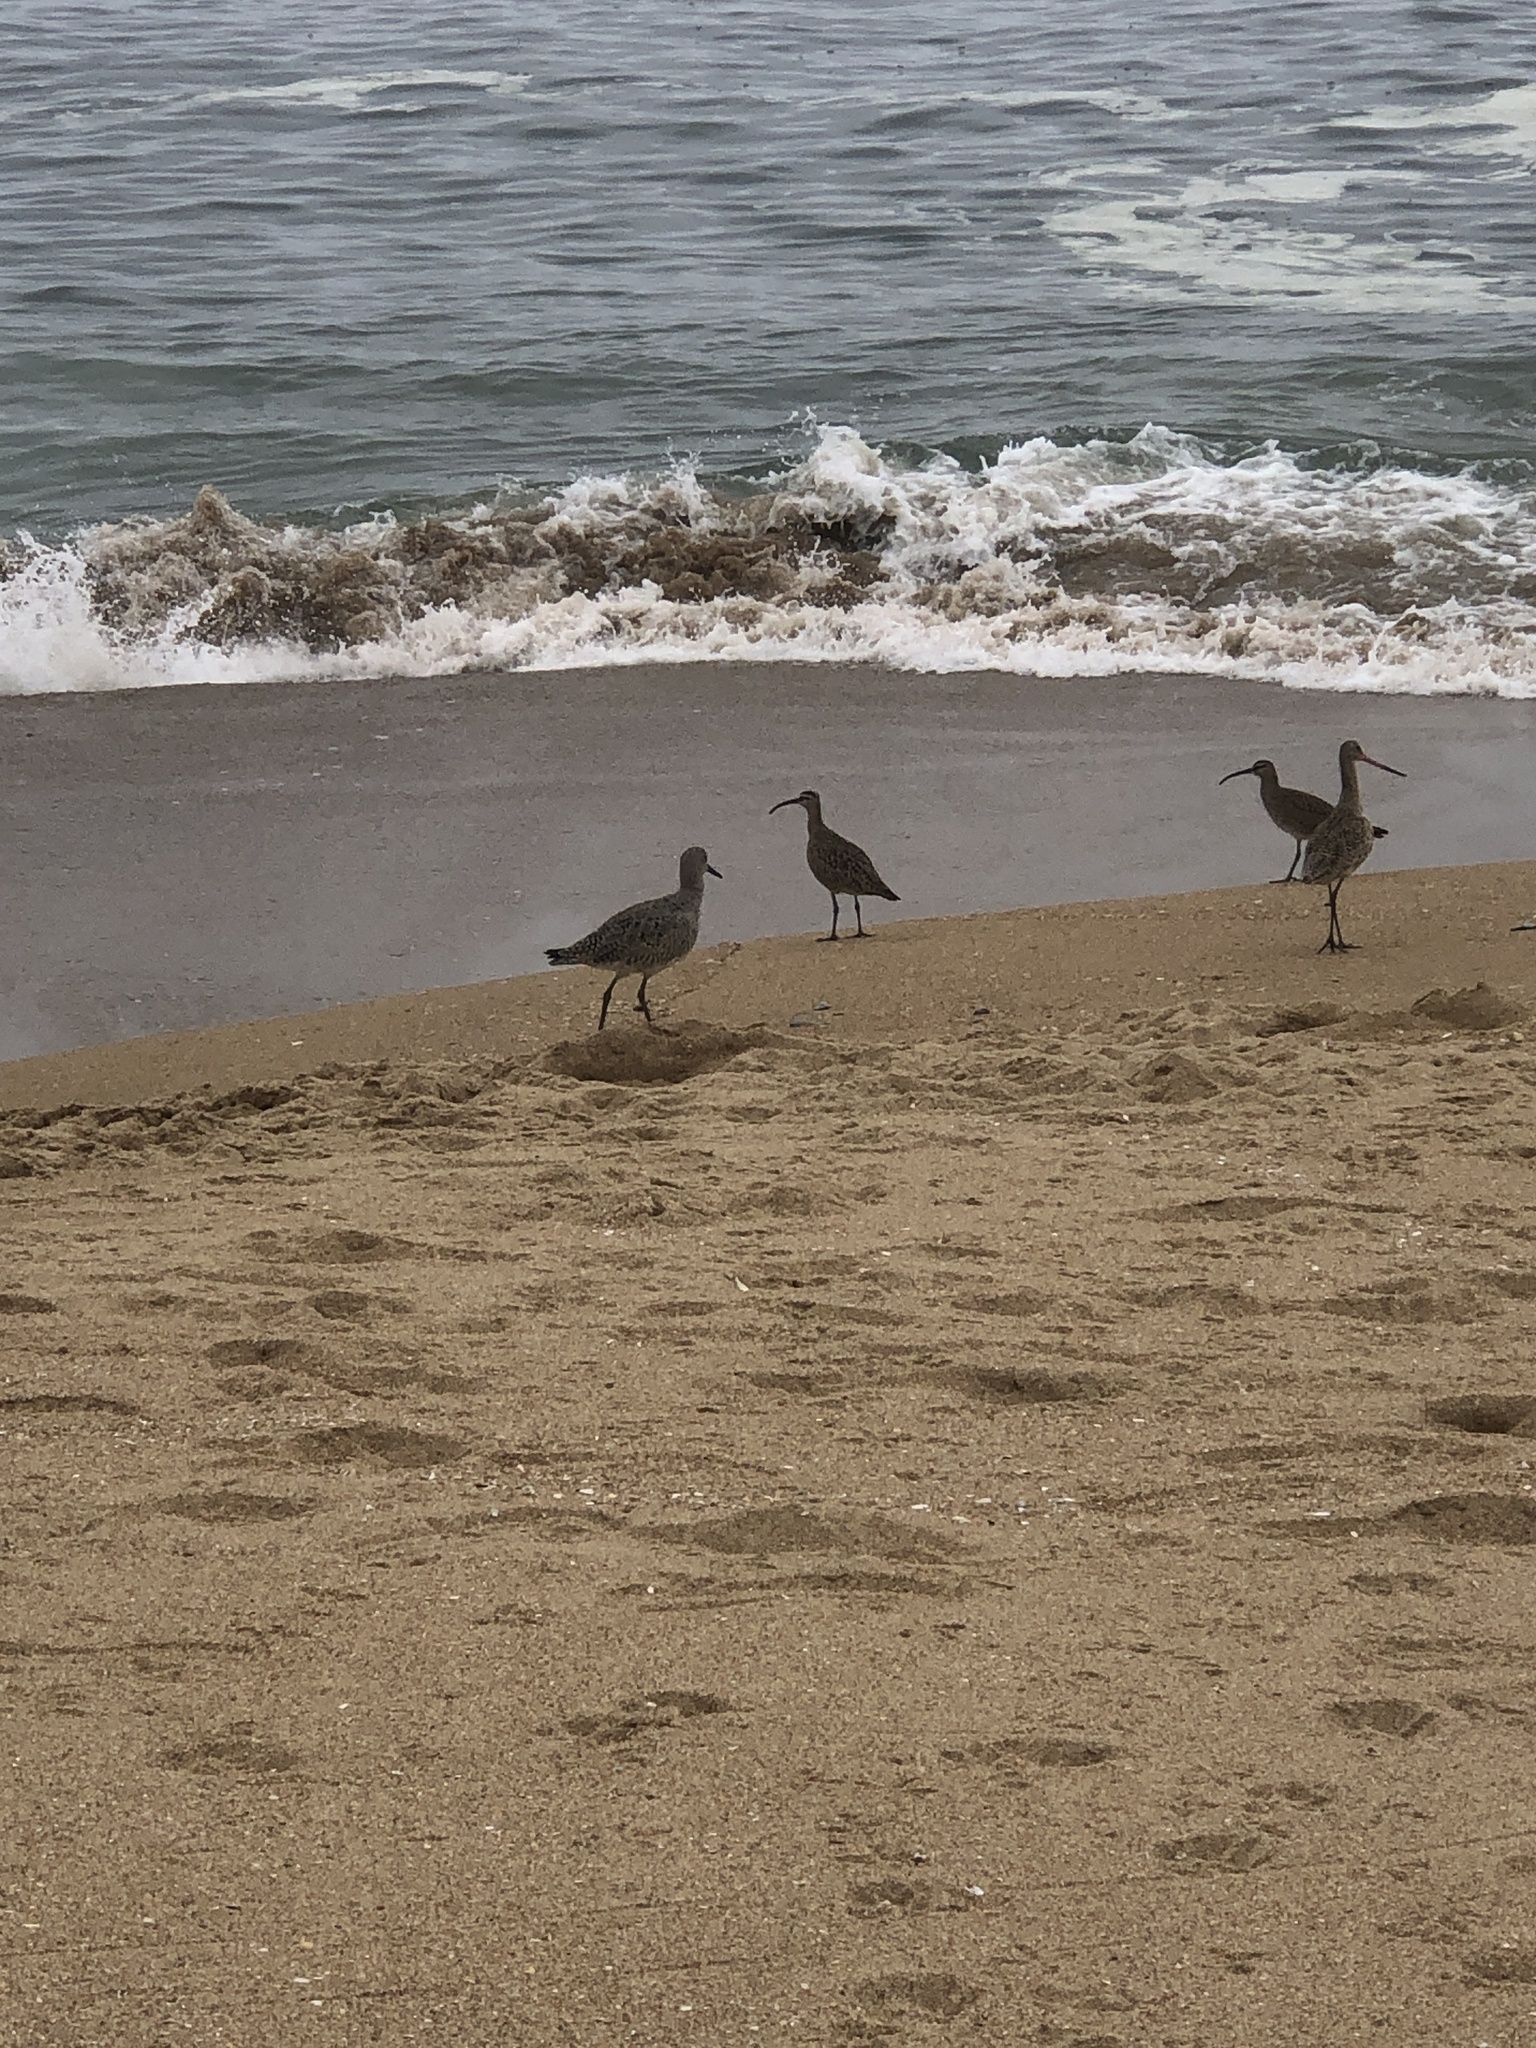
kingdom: Animalia
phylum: Chordata
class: Aves
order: Charadriiformes
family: Scolopacidae
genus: Tringa
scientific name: Tringa semipalmata
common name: Willet
